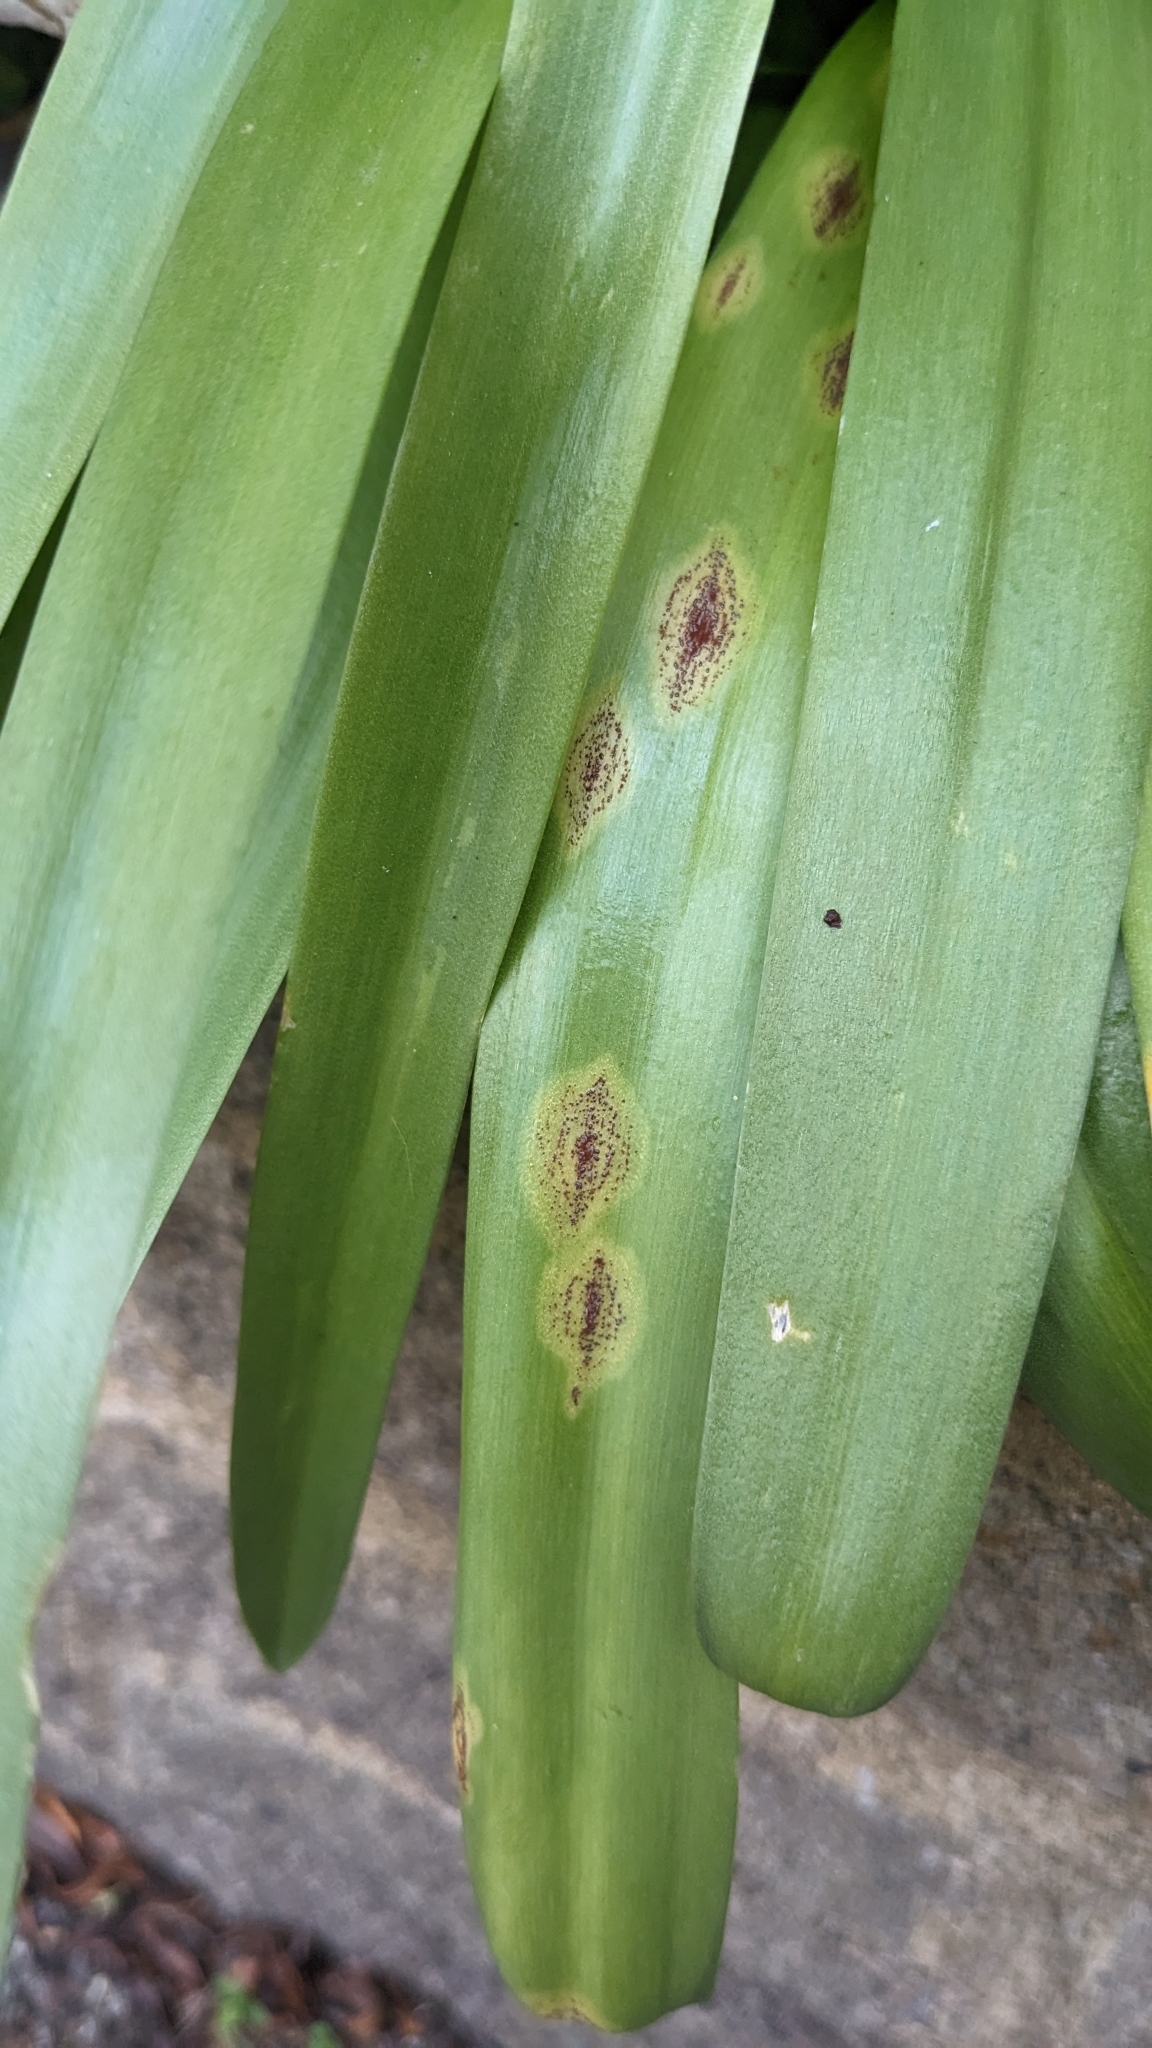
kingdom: Fungi
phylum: Basidiomycota
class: Pucciniomycetes
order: Pucciniales
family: Pucciniaceae
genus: Uromyces
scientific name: Uromyces hyacinthi
